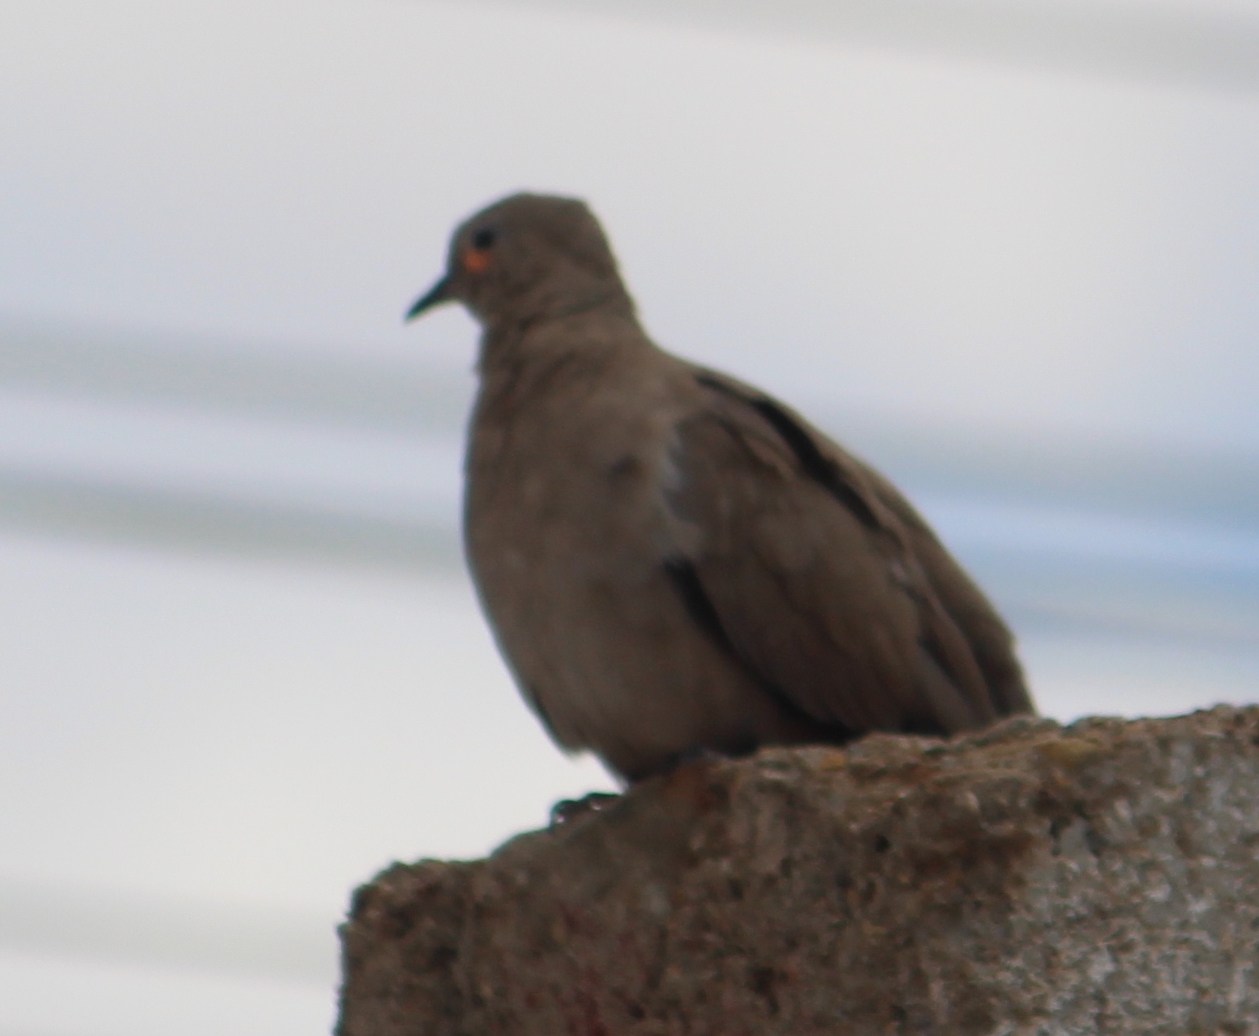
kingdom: Animalia
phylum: Chordata
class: Aves
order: Columbiformes
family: Columbidae
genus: Metriopelia
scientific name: Metriopelia melanoptera
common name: Black-winged ground dove
